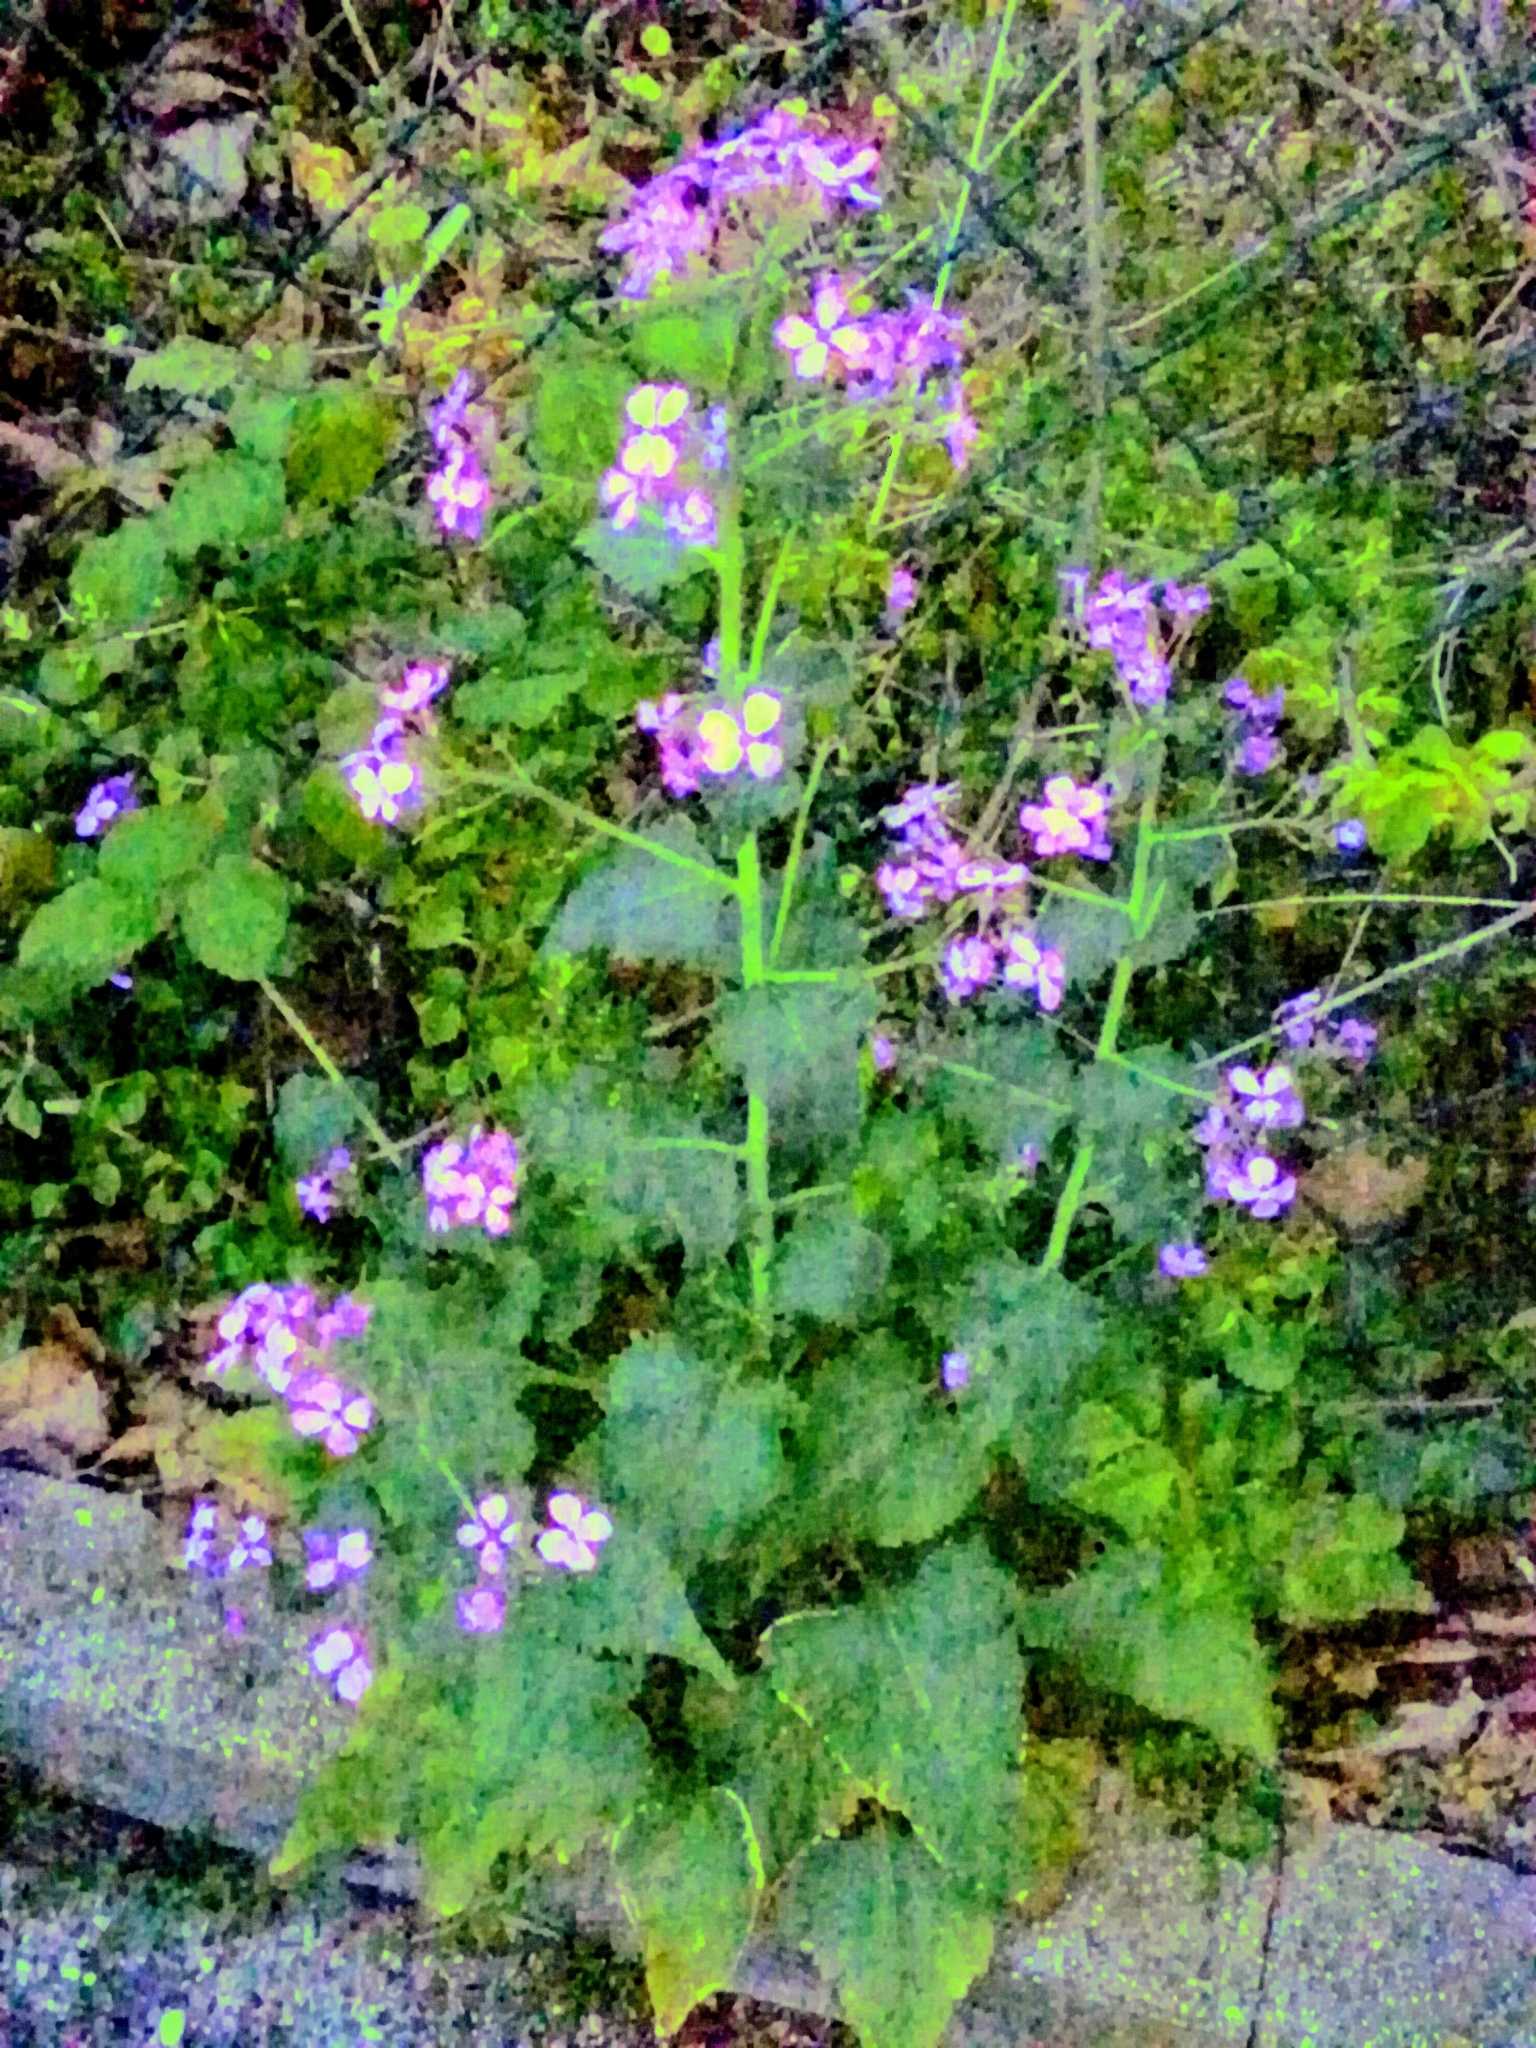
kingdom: Plantae
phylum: Tracheophyta
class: Magnoliopsida
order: Brassicales
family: Brassicaceae
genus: Lunaria
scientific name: Lunaria annua
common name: Honesty
